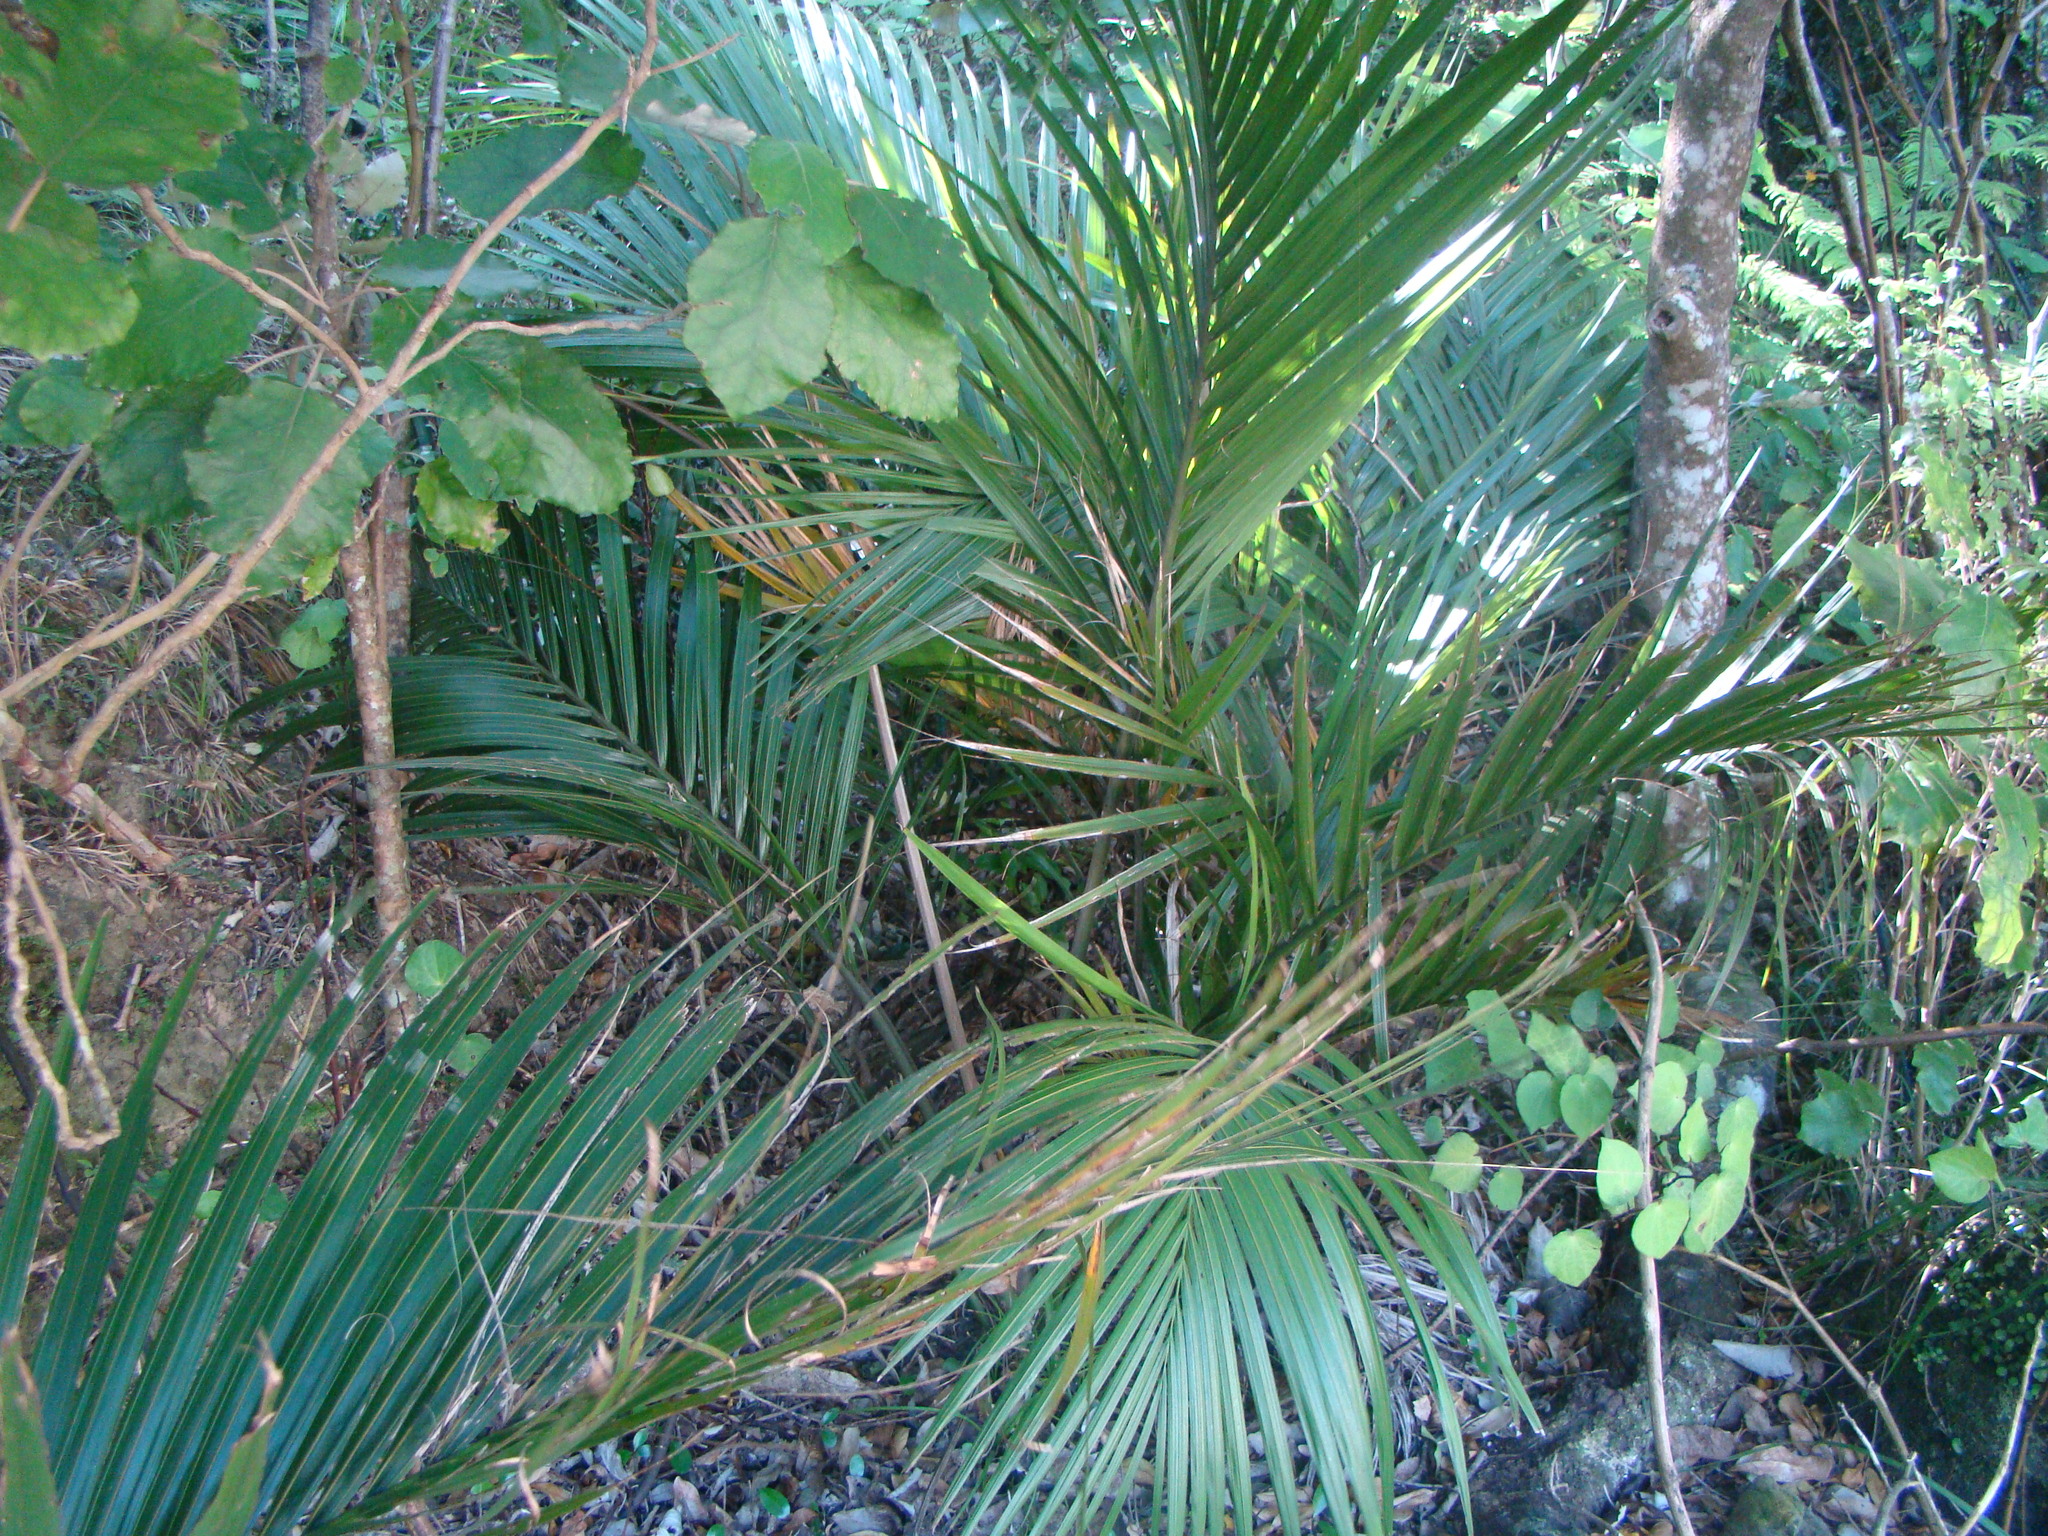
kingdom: Plantae
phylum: Tracheophyta
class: Liliopsida
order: Arecales
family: Arecaceae
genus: Rhopalostylis
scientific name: Rhopalostylis sapida
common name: Feather-duster palm
